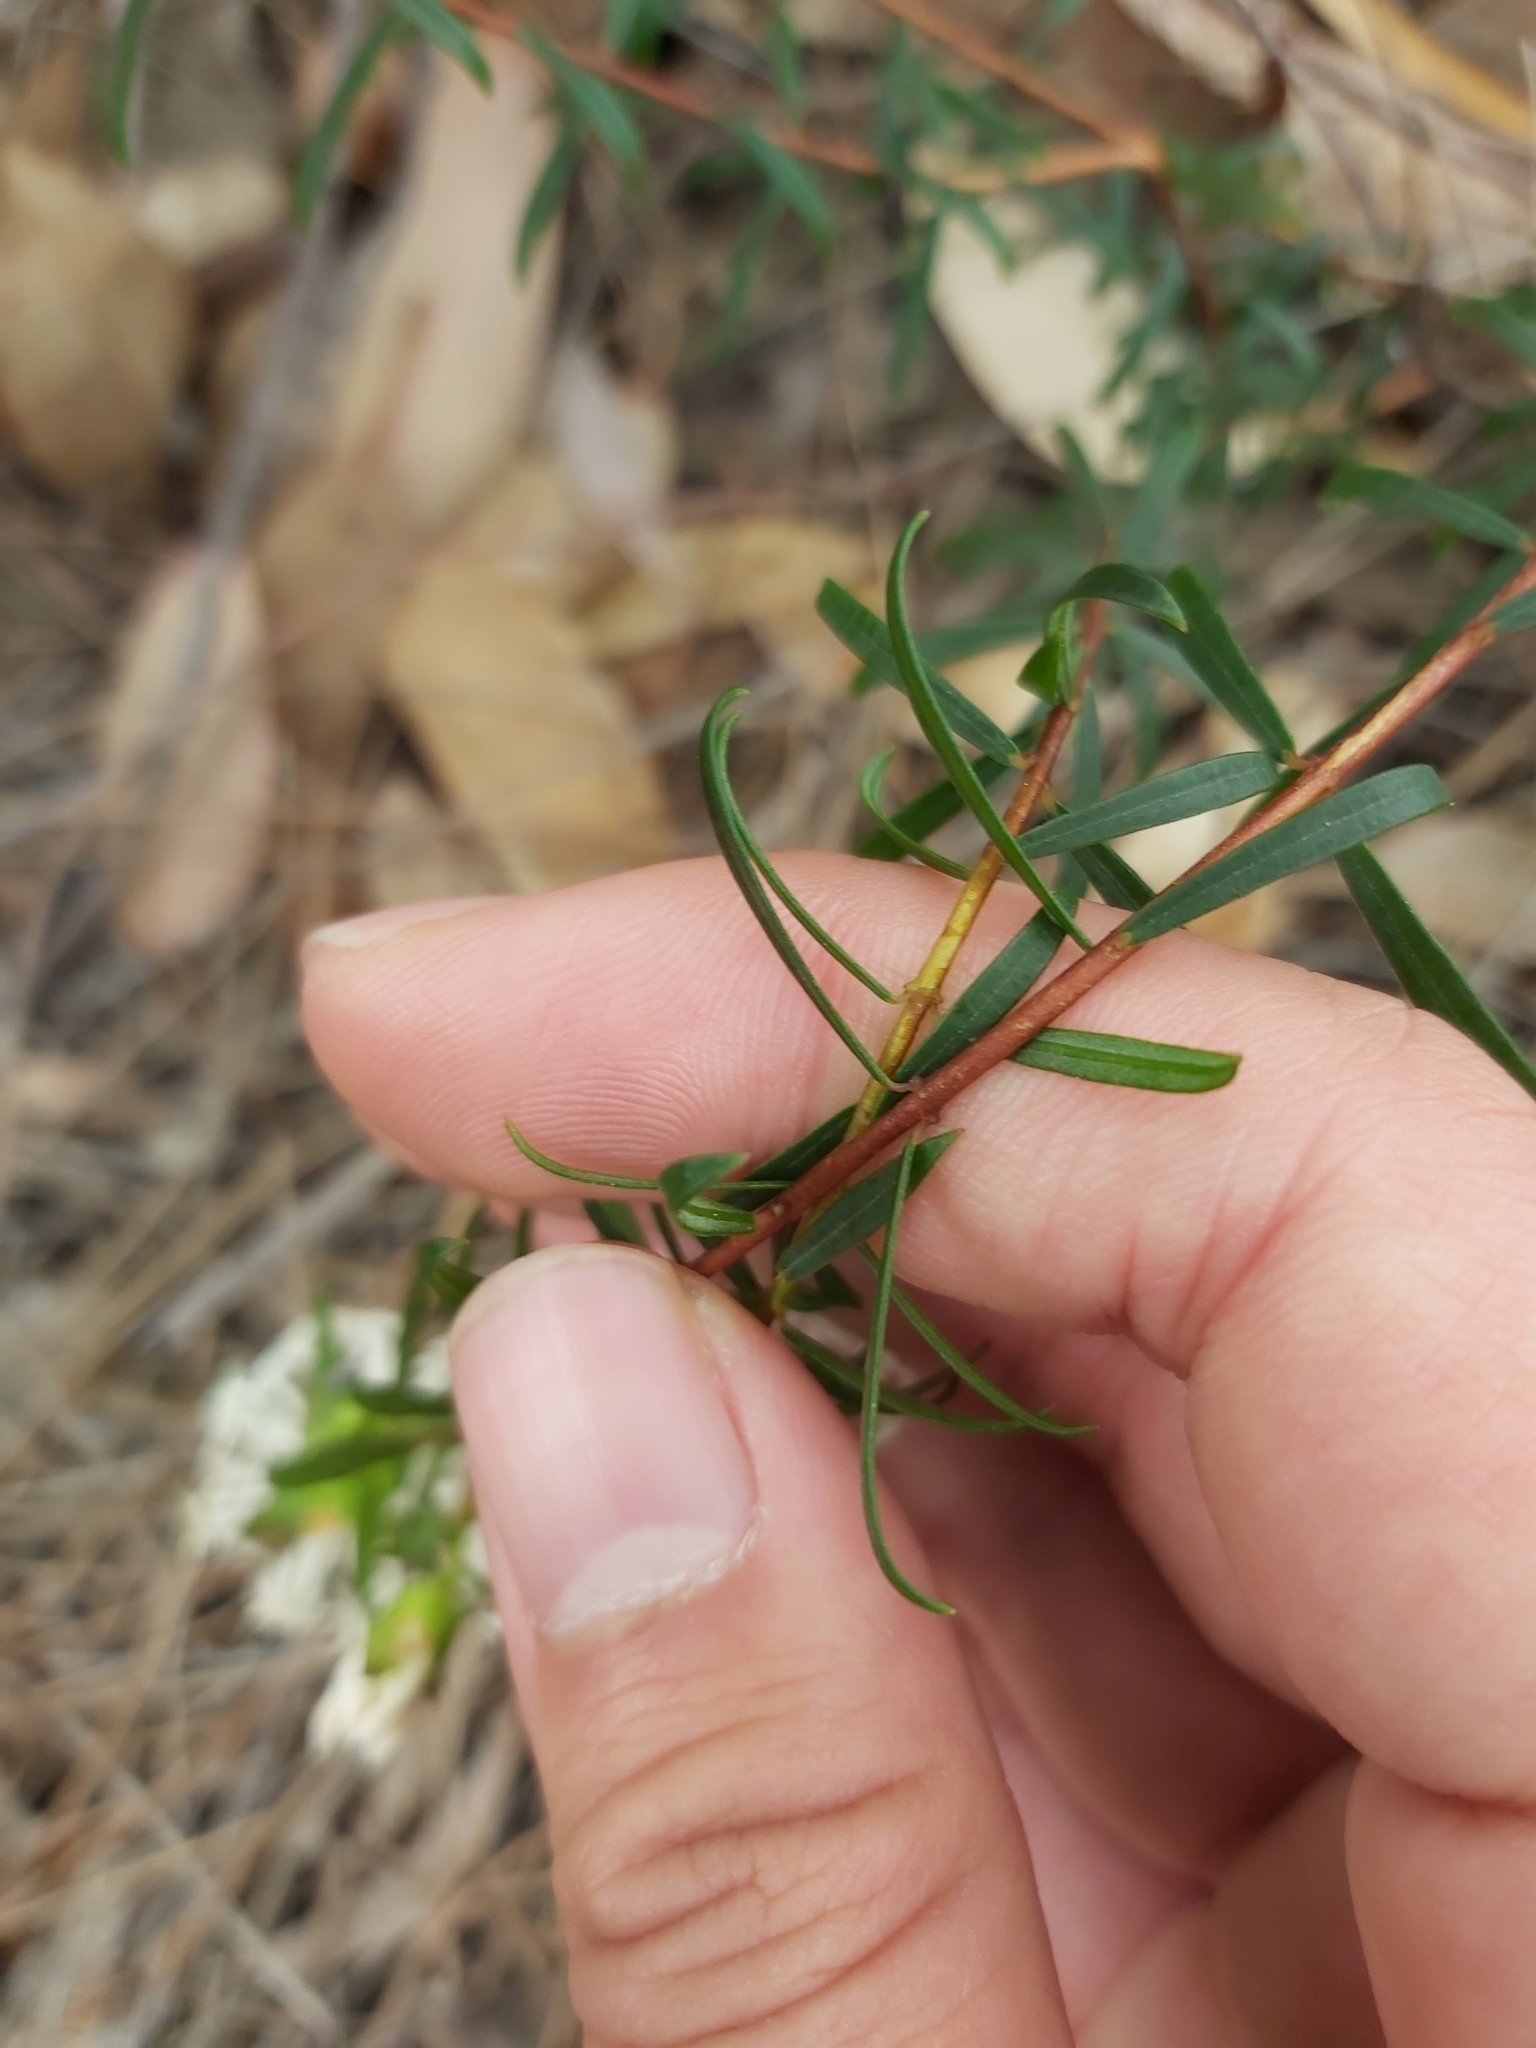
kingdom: Plantae
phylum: Tracheophyta
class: Magnoliopsida
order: Malvales
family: Thymelaeaceae
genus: Pimelea
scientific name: Pimelea linifolia
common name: Queen-of-the-bush
